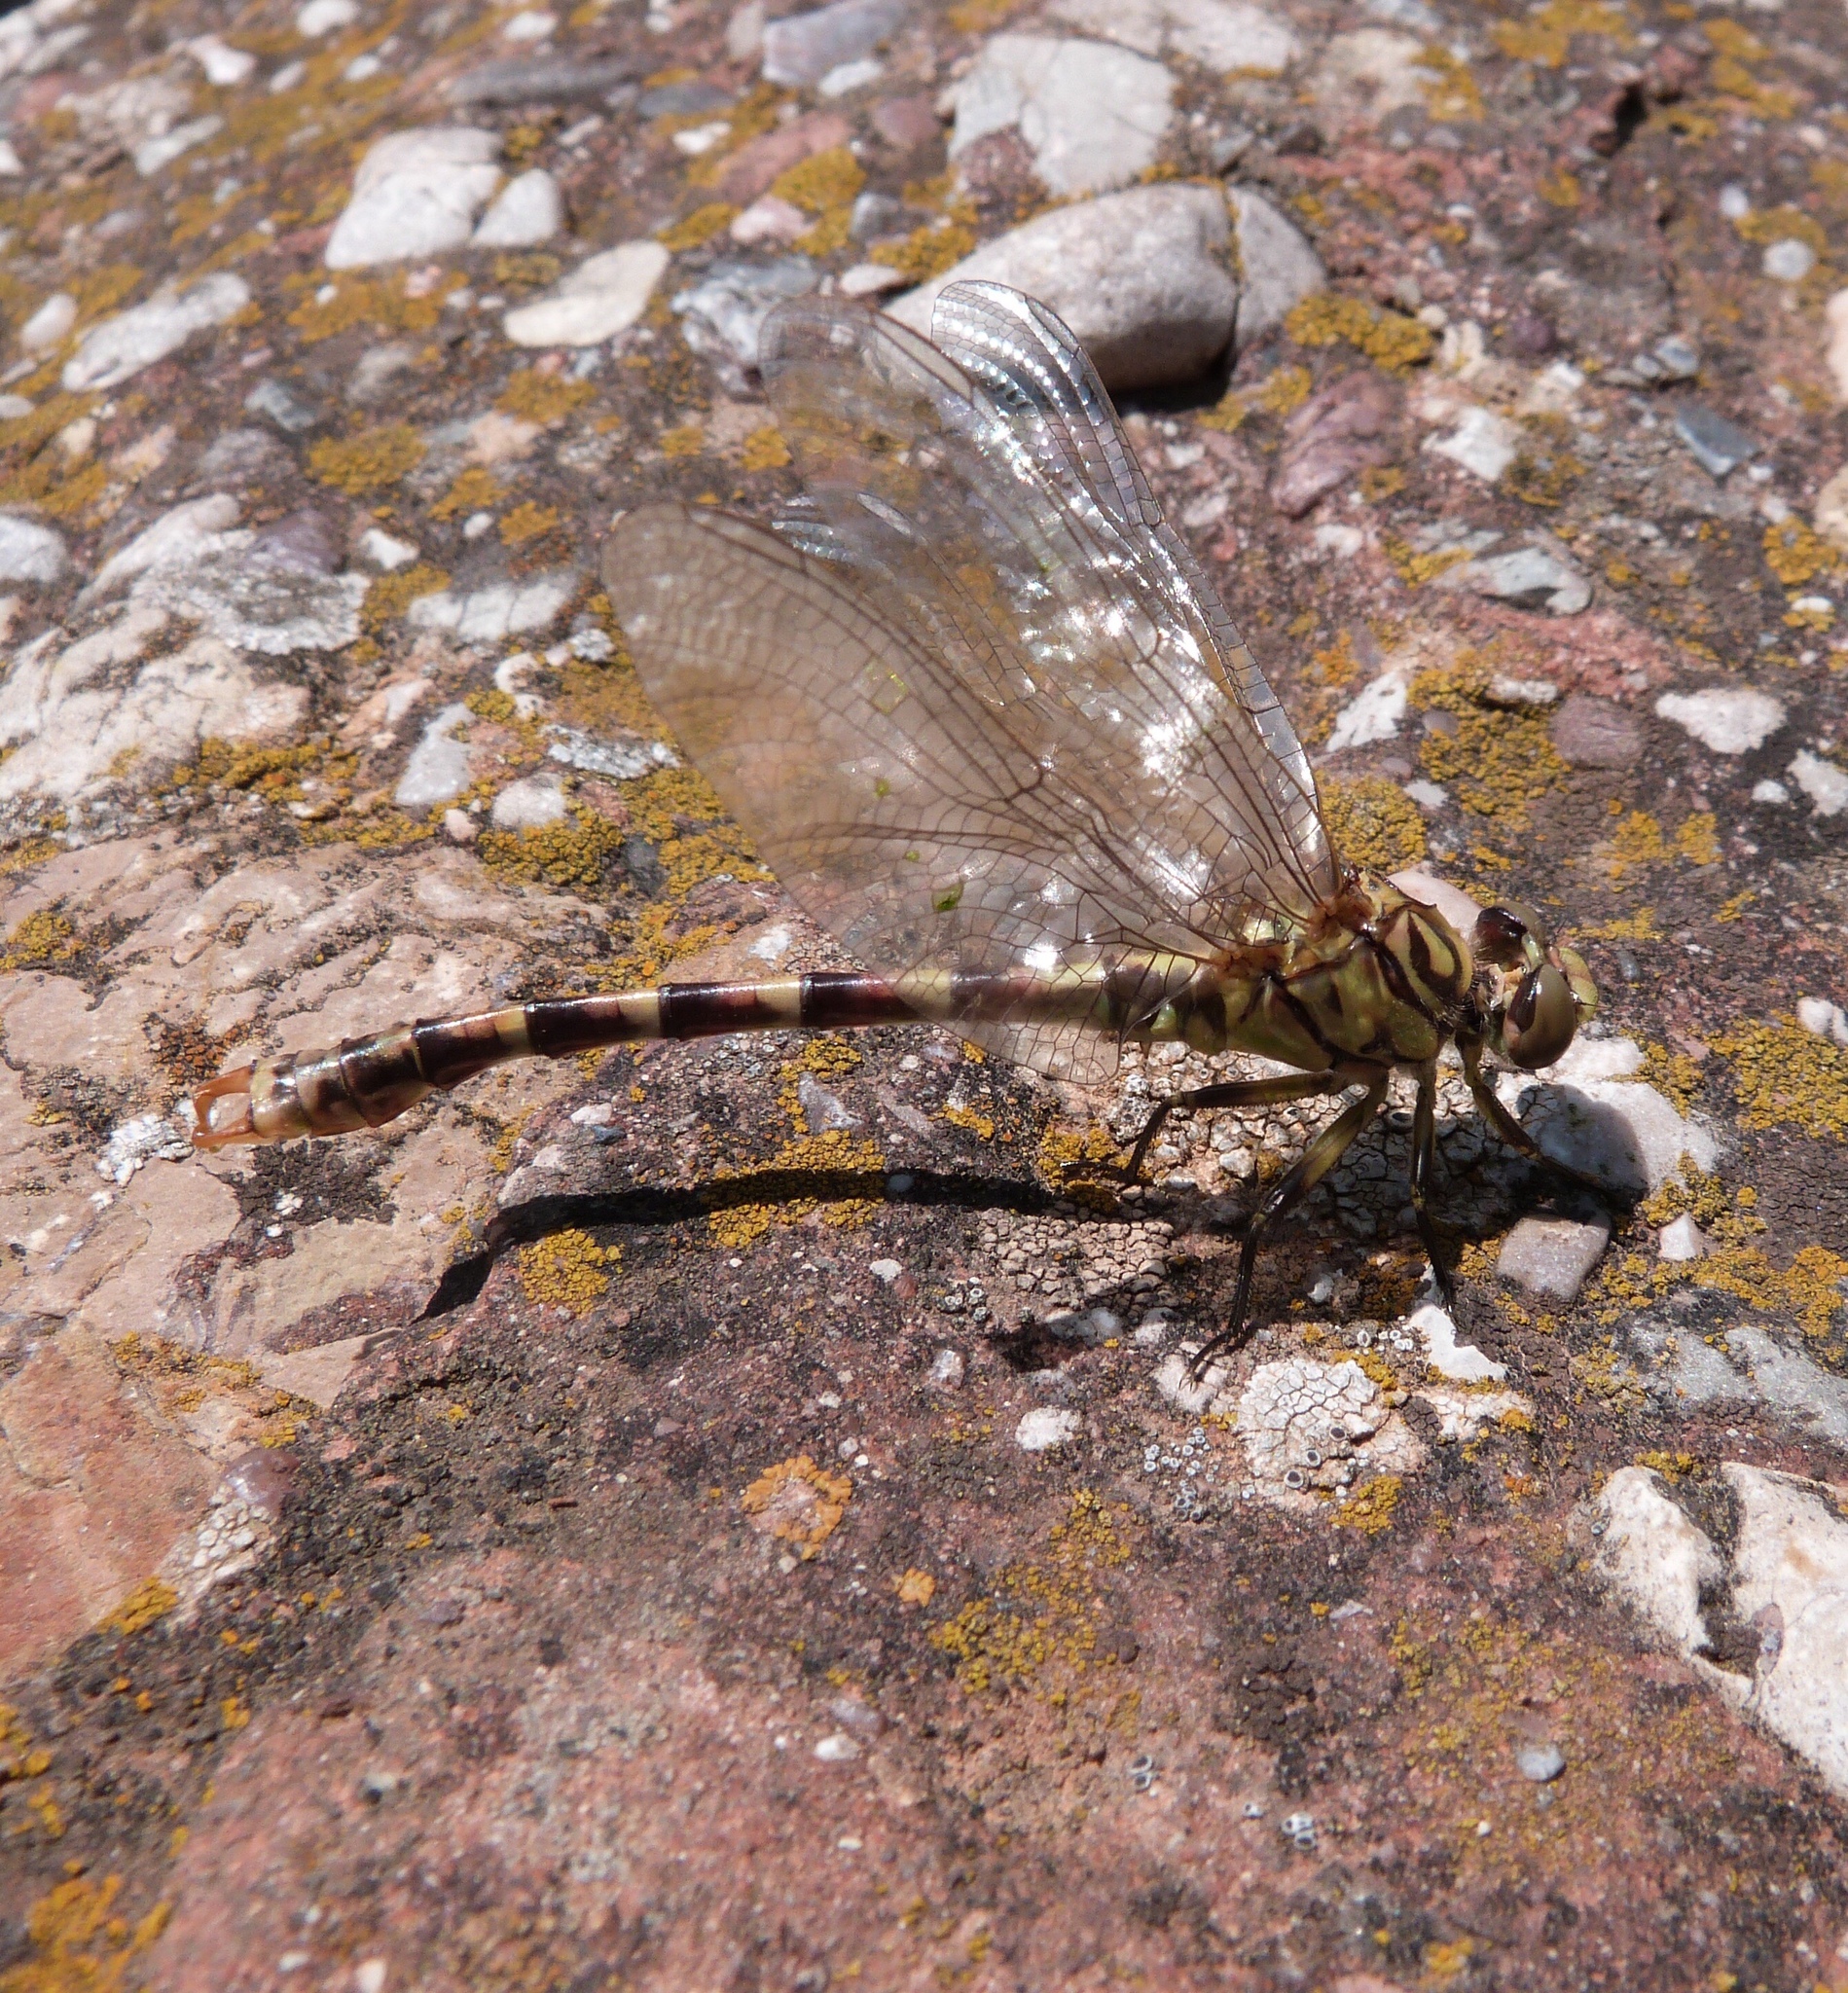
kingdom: Animalia
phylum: Arthropoda
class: Insecta
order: Odonata
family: Gomphidae
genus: Onychogomphus
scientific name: Onychogomphus forcipatus
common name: Small pincertail
